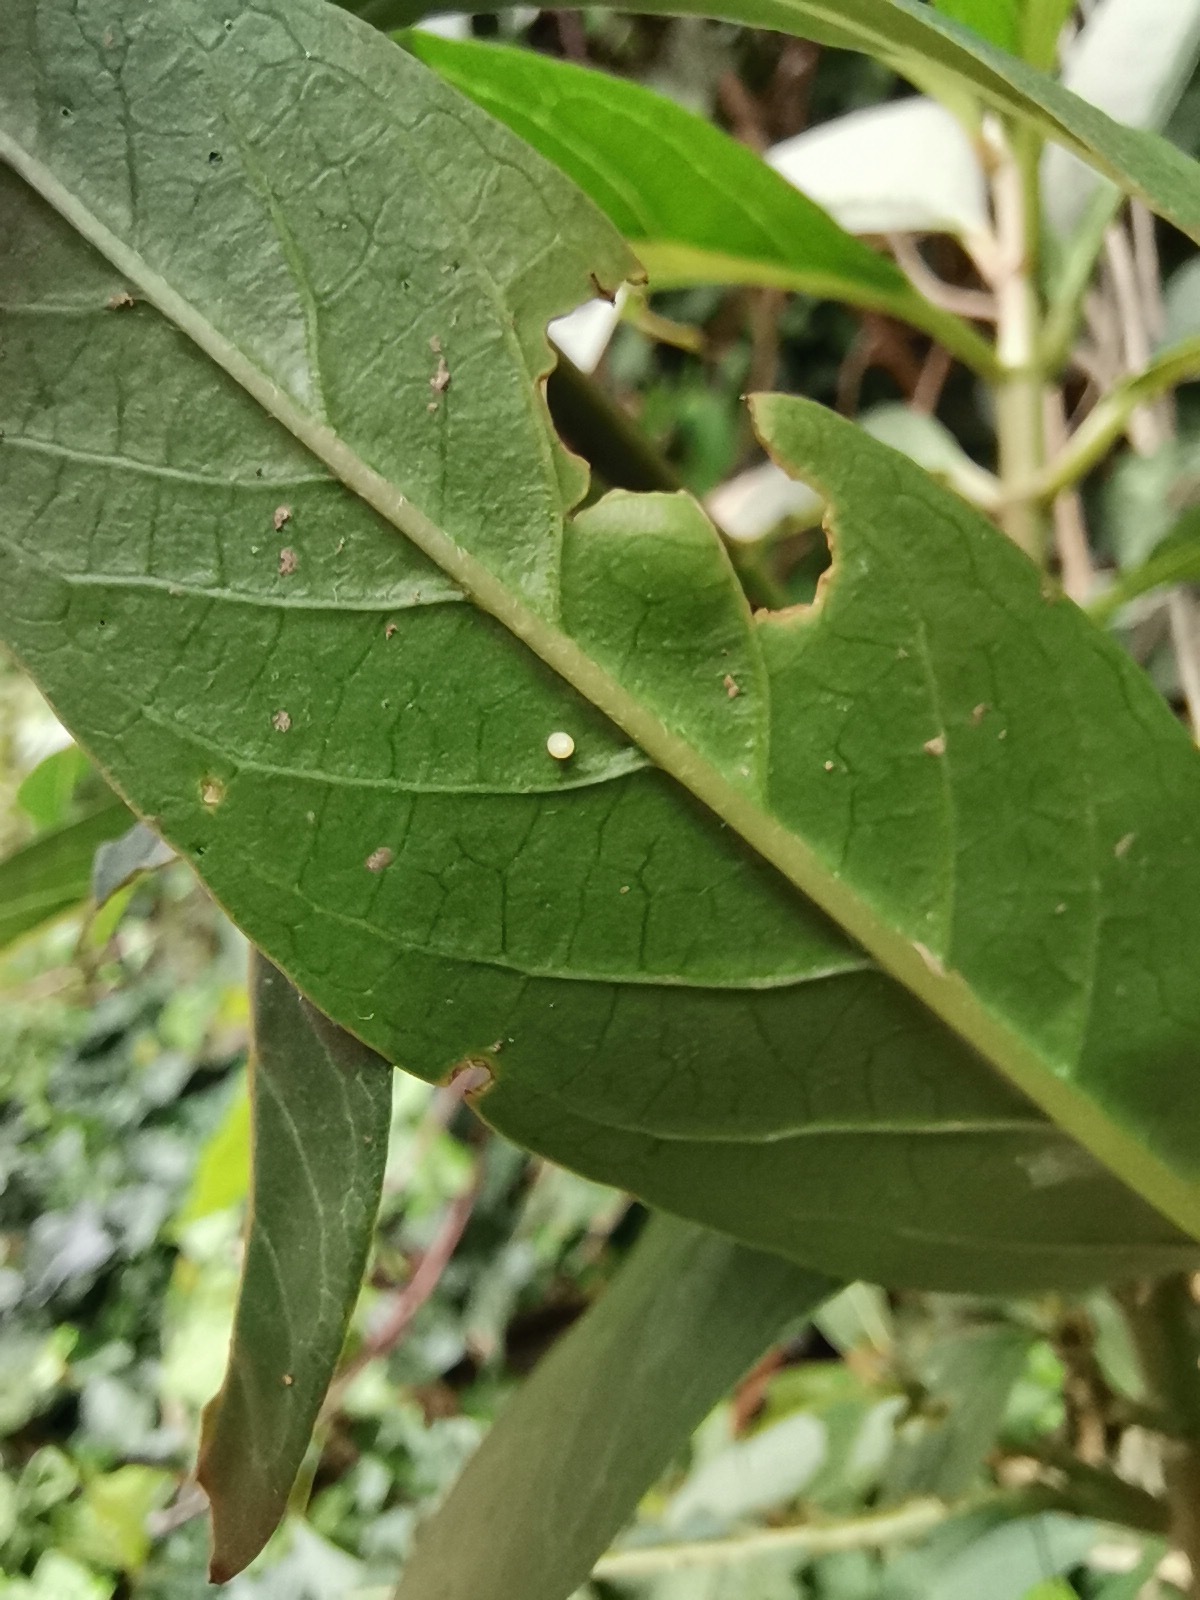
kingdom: Animalia
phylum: Arthropoda
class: Insecta
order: Lepidoptera
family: Nymphalidae
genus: Danaus
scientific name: Danaus plexippus
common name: Monarch
